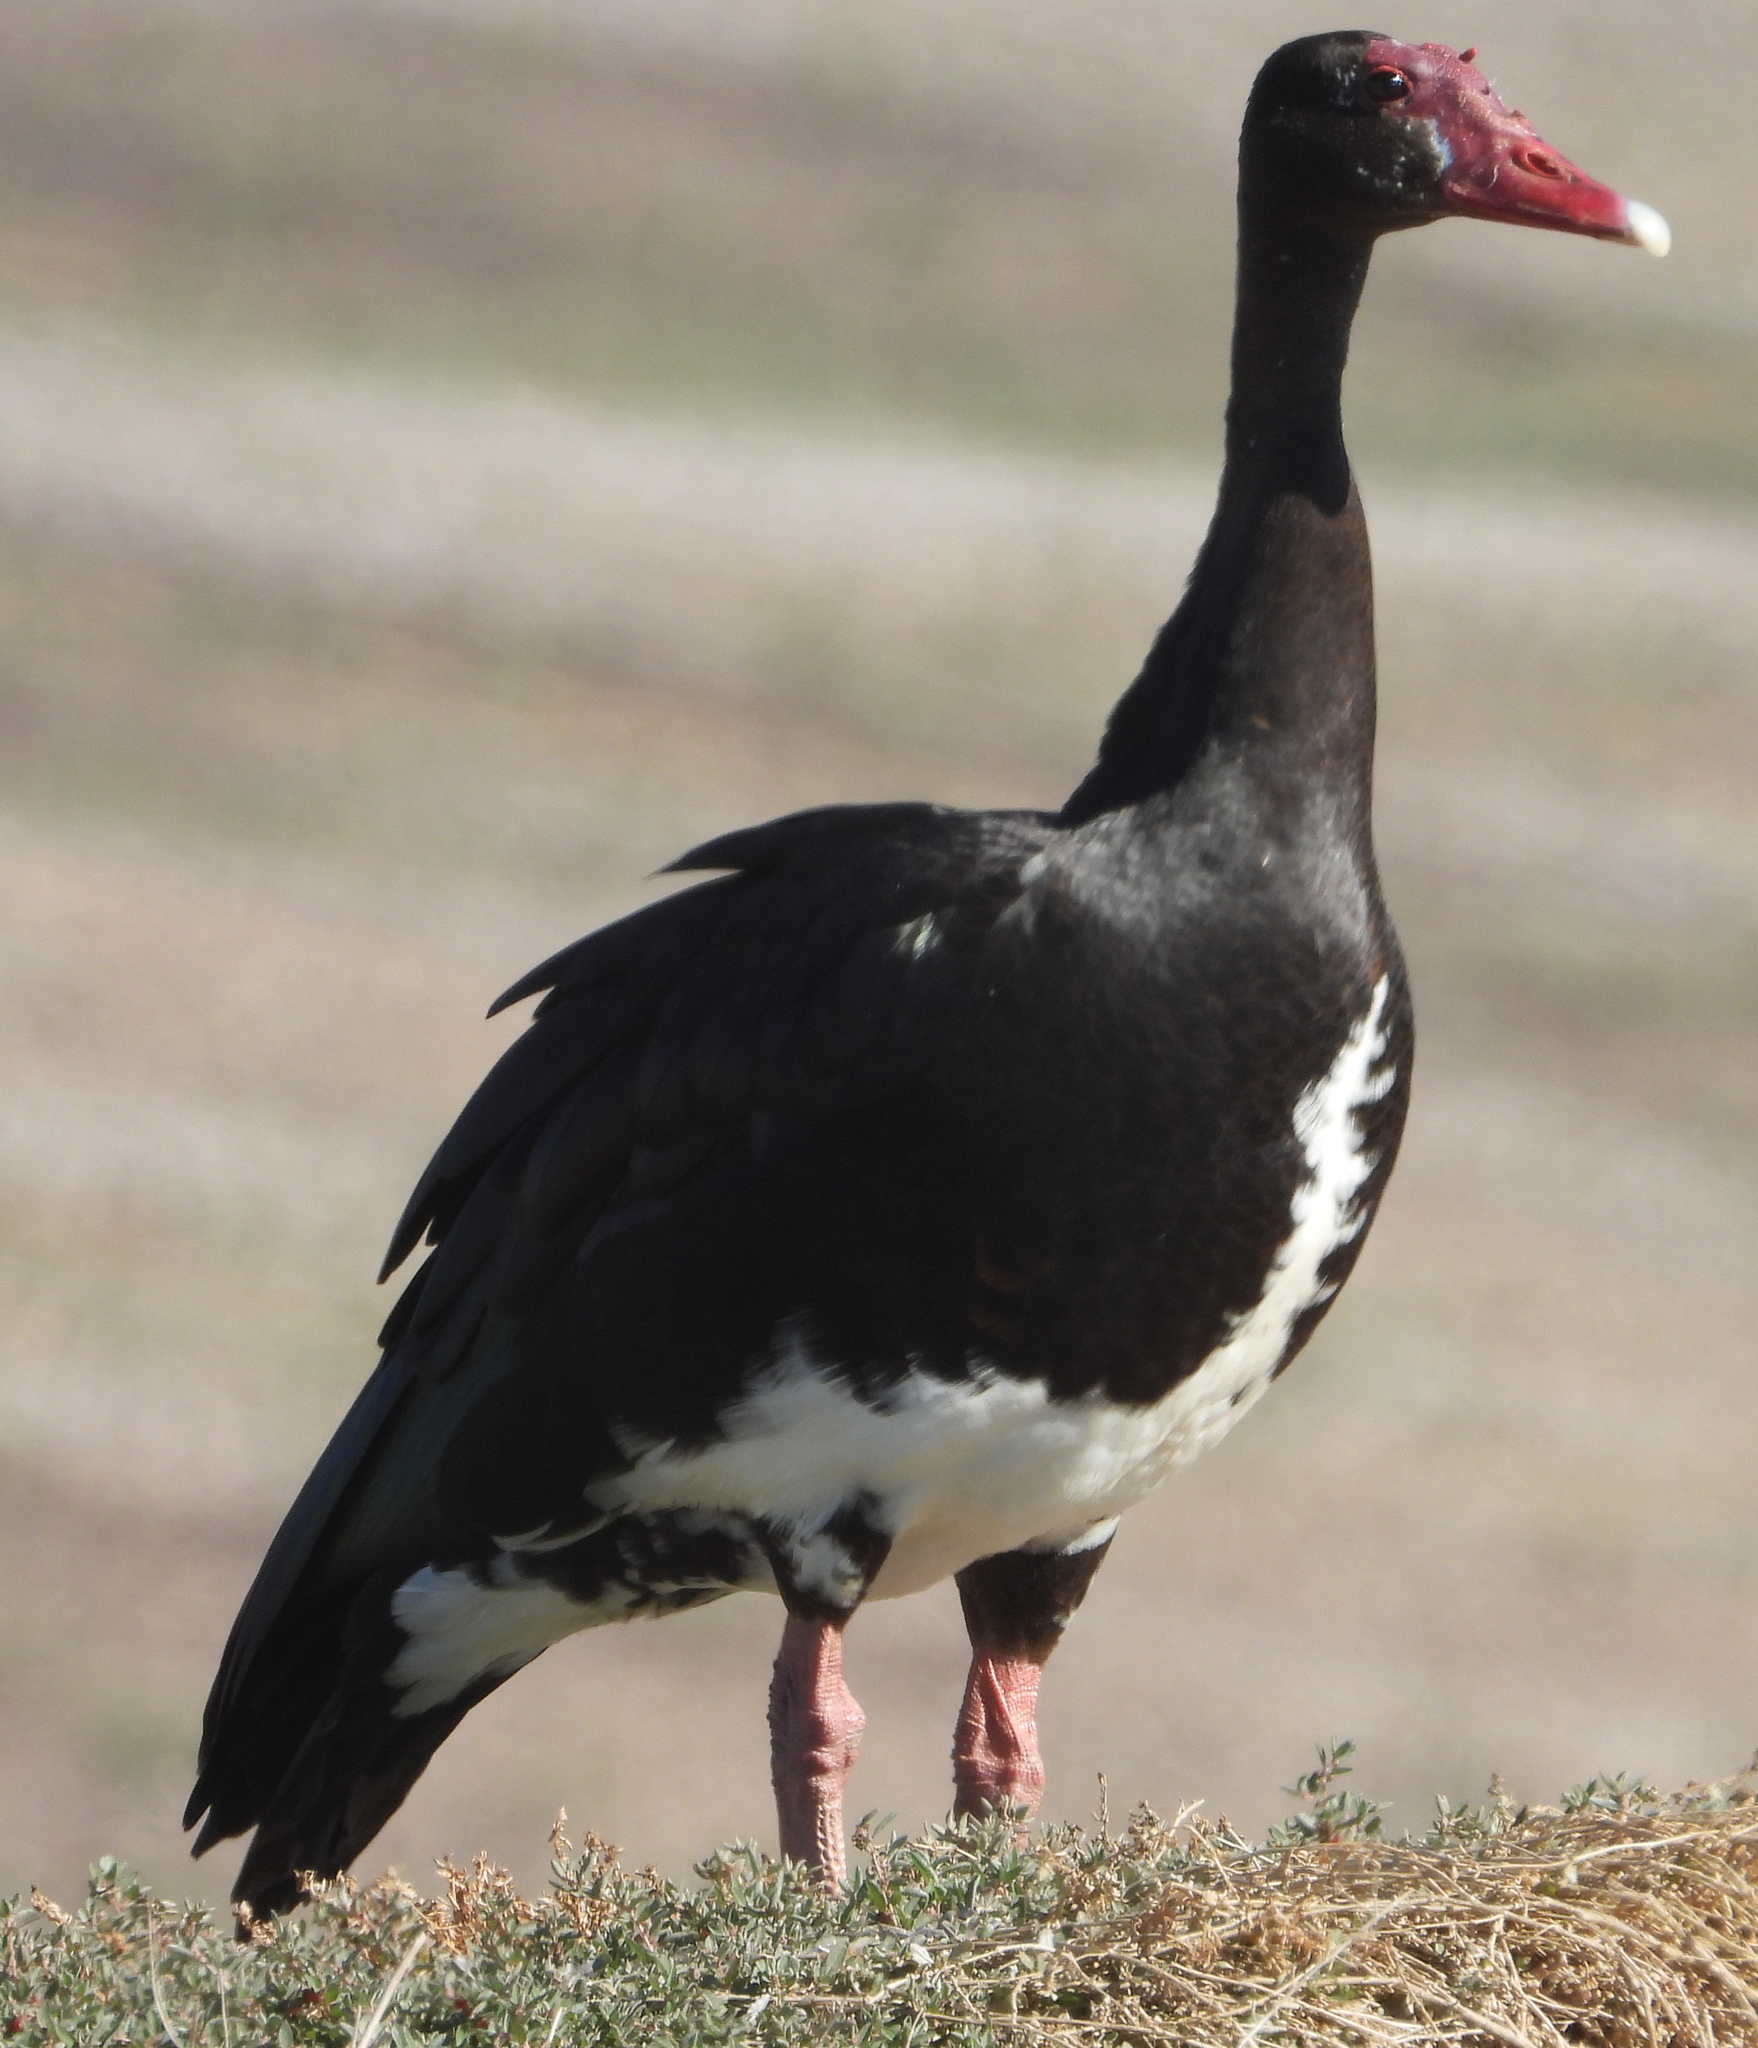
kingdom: Animalia
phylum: Chordata
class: Aves
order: Anseriformes
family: Anatidae
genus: Plectropterus
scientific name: Plectropterus gambensis
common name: Spur-winged goose
